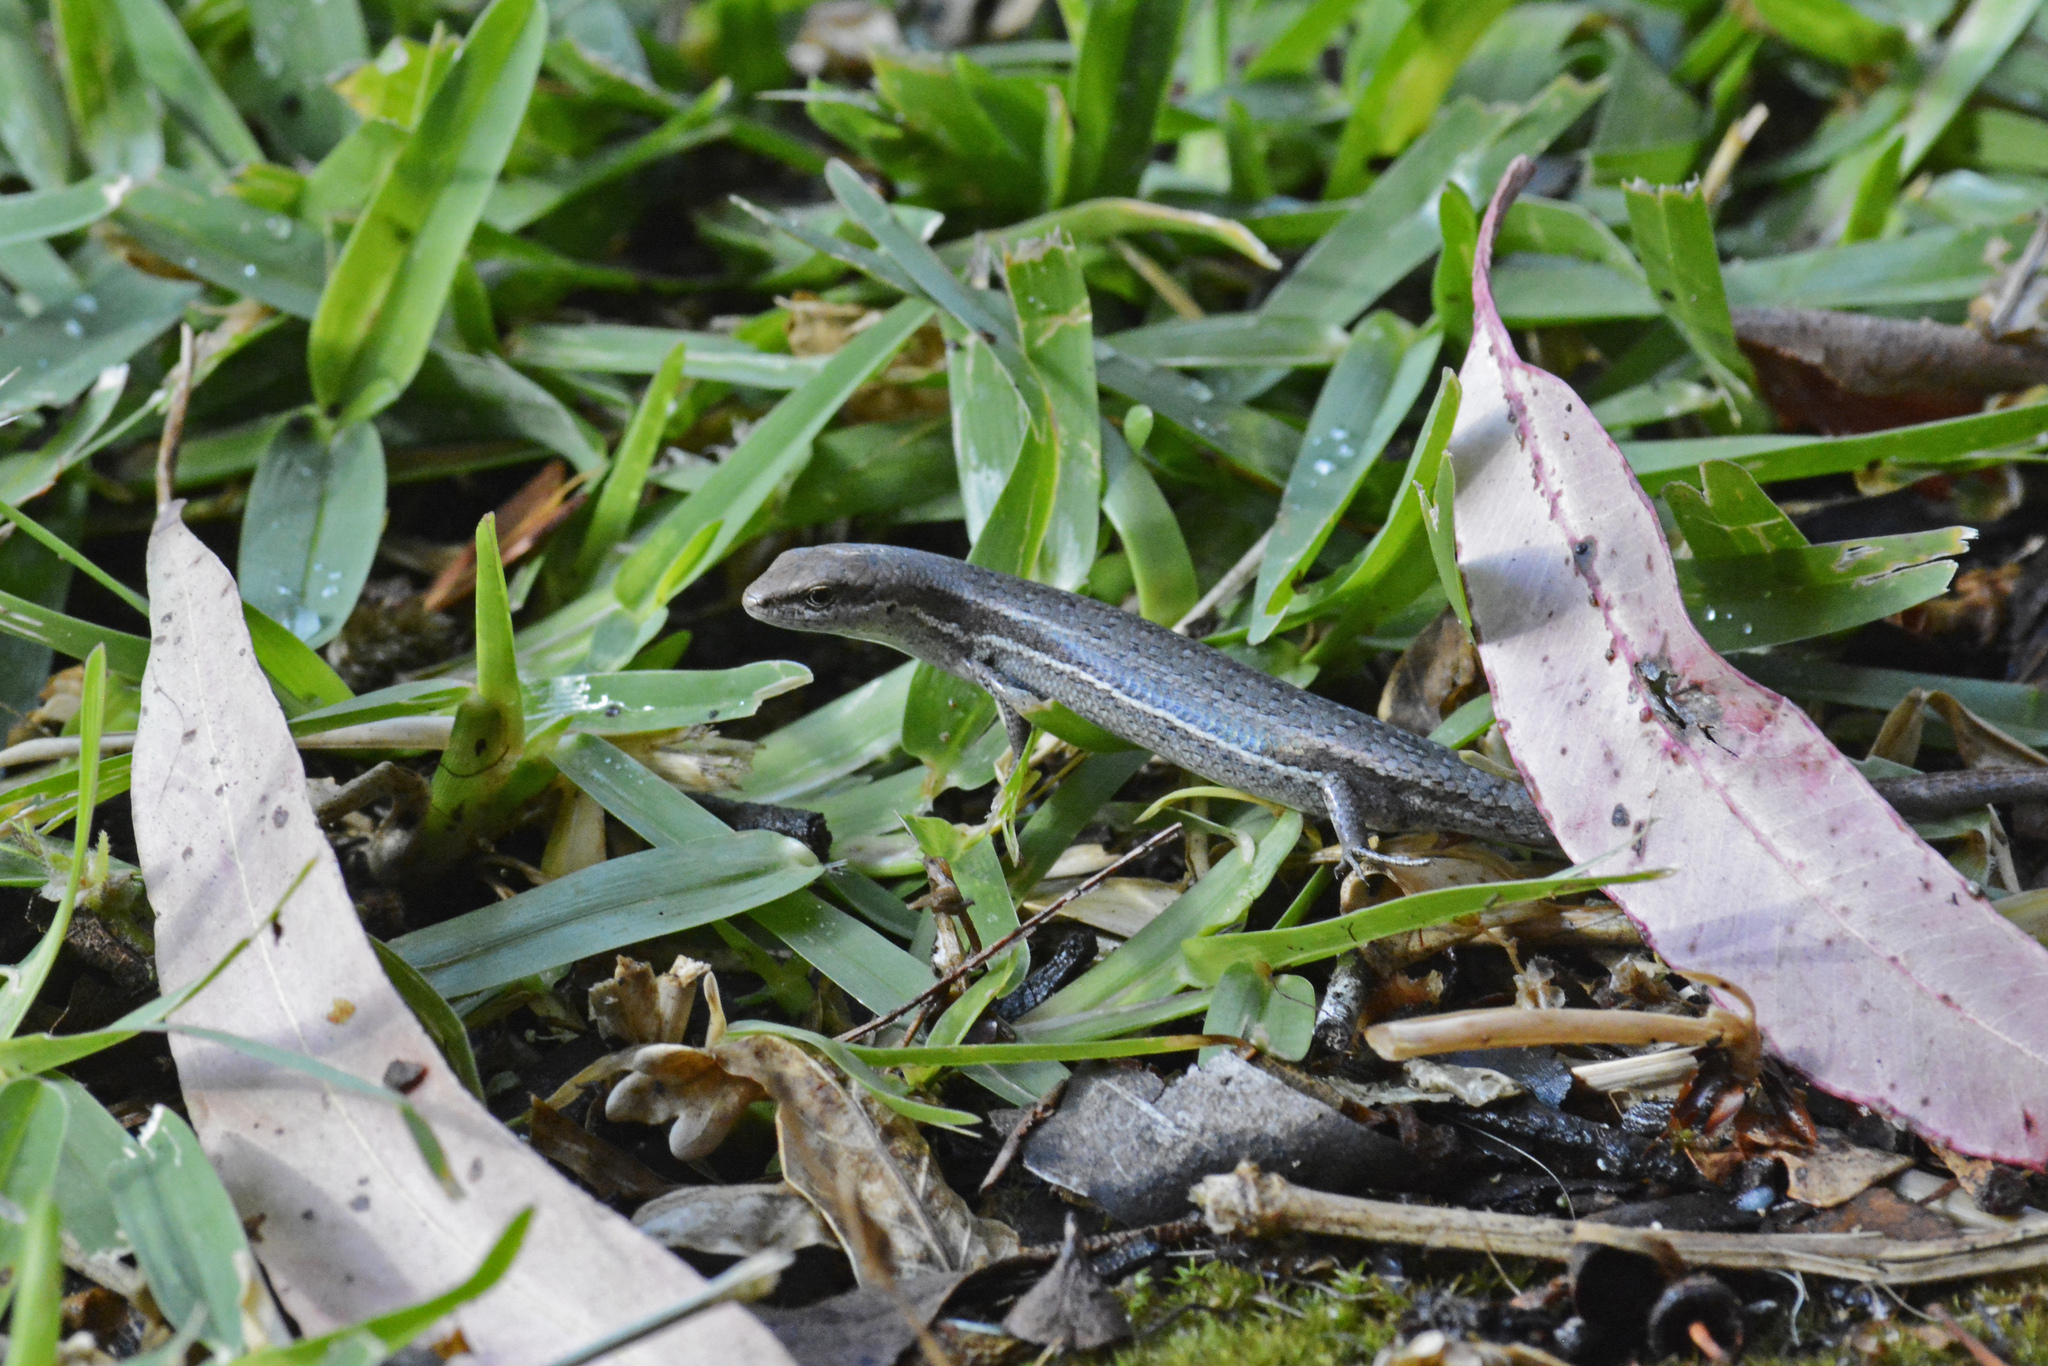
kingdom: Animalia
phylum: Chordata
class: Squamata
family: Scincidae
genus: Lampropholis
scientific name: Lampropholis guichenoti
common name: Garden skink
